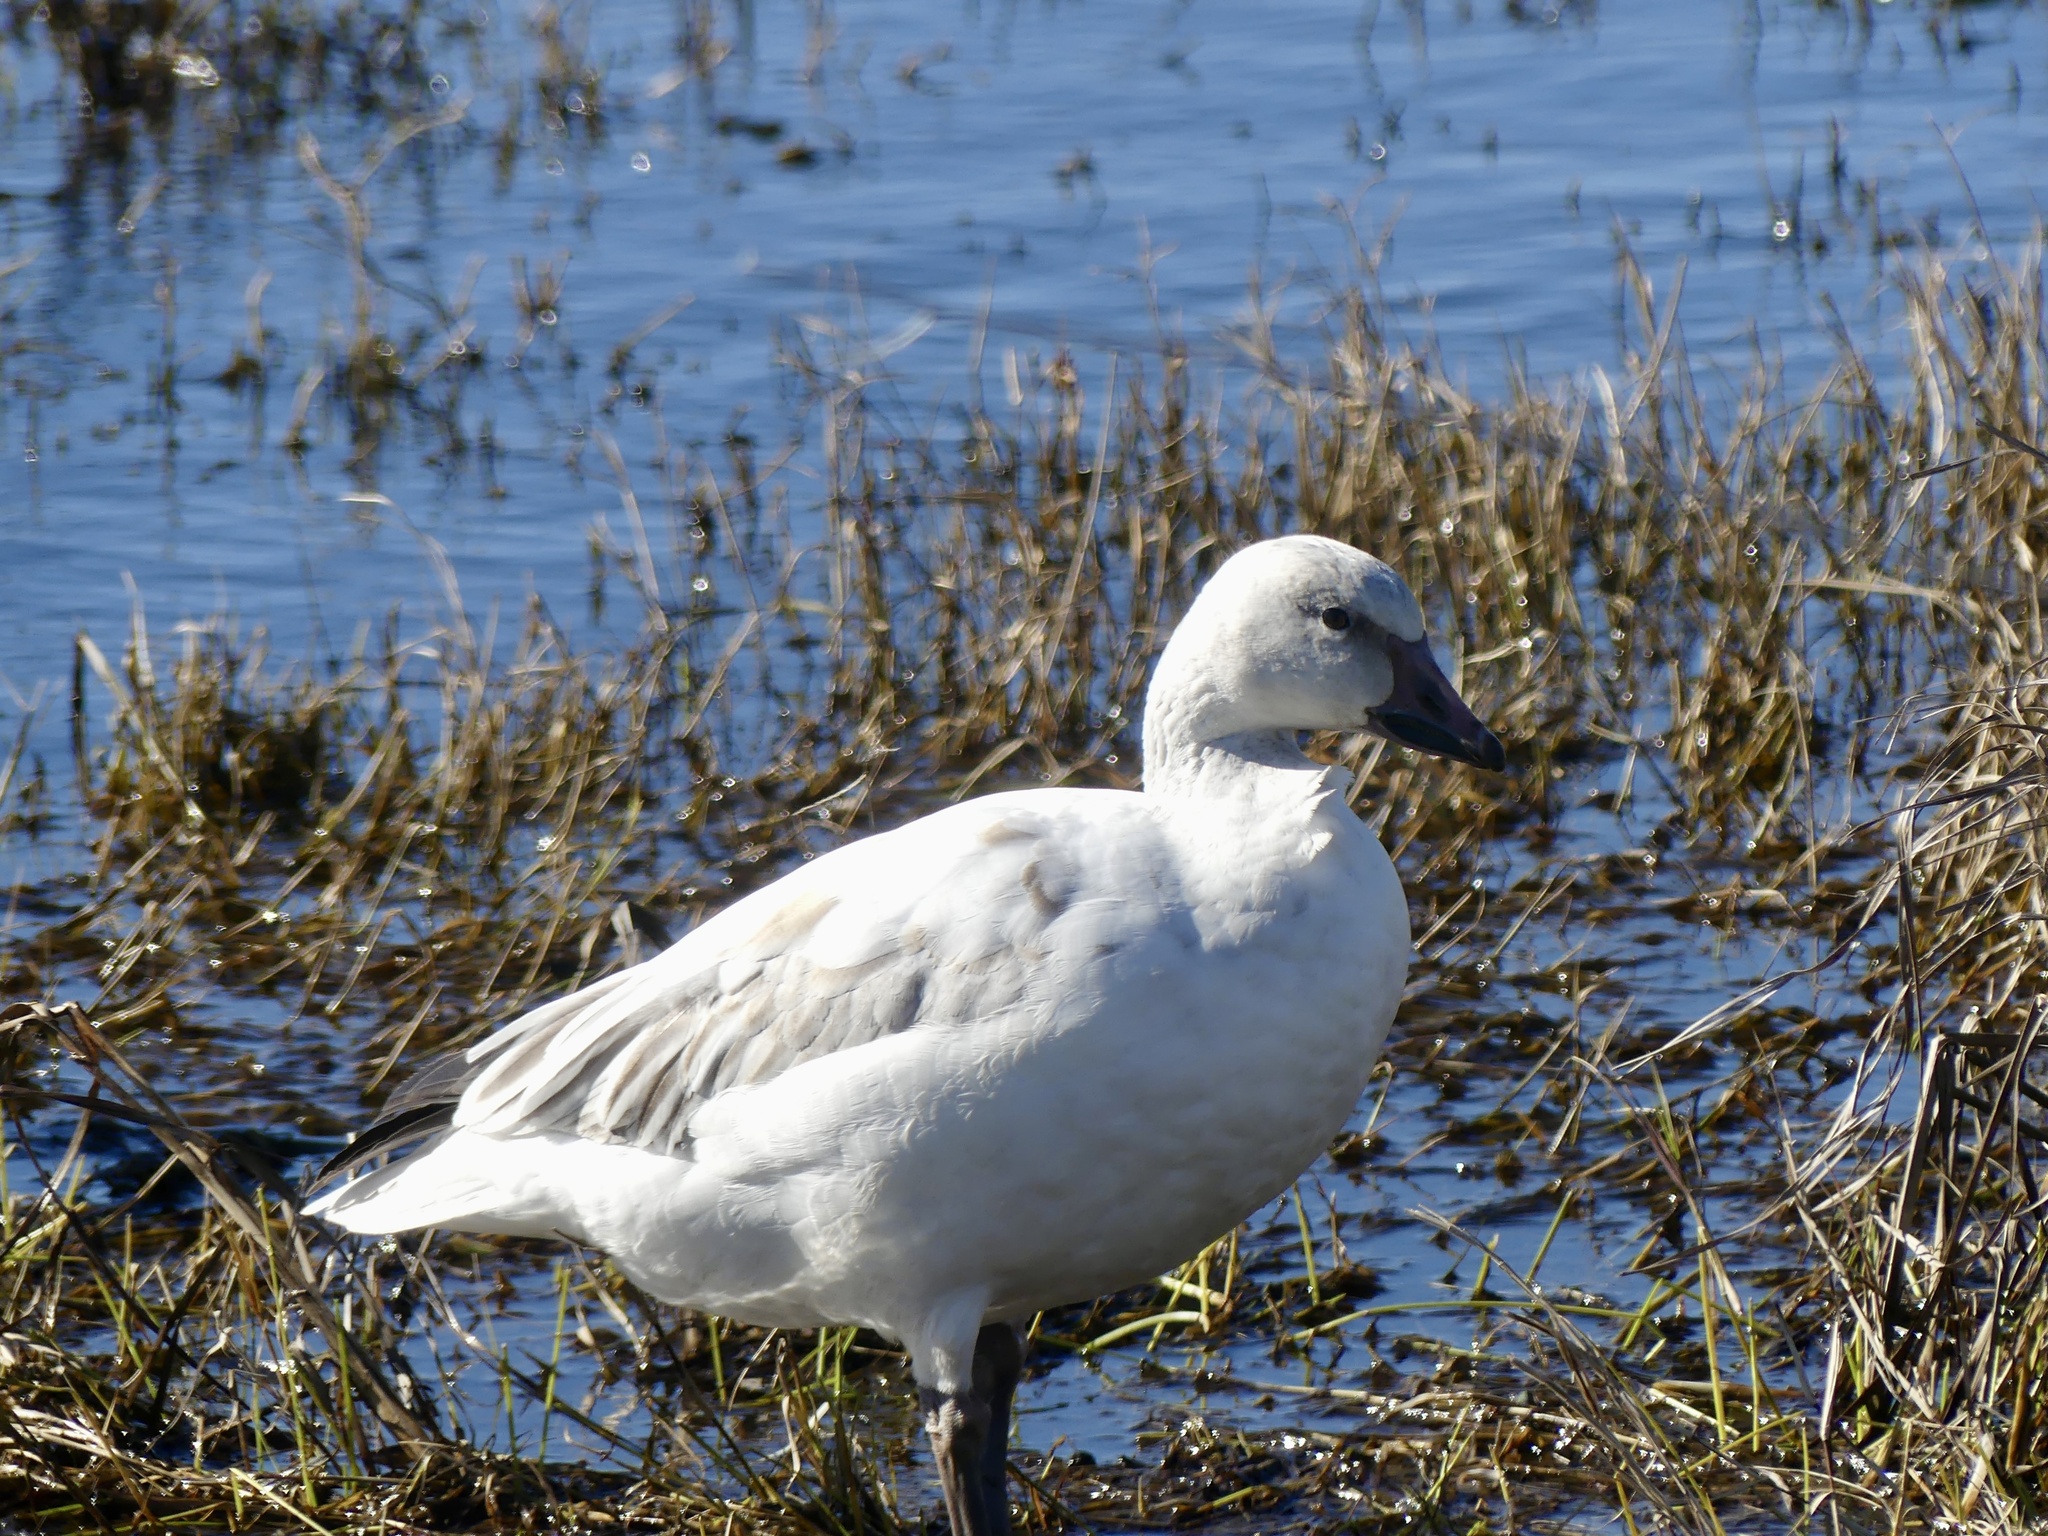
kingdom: Animalia
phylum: Chordata
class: Aves
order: Anseriformes
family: Anatidae
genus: Anser
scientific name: Anser caerulescens
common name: Snow goose
